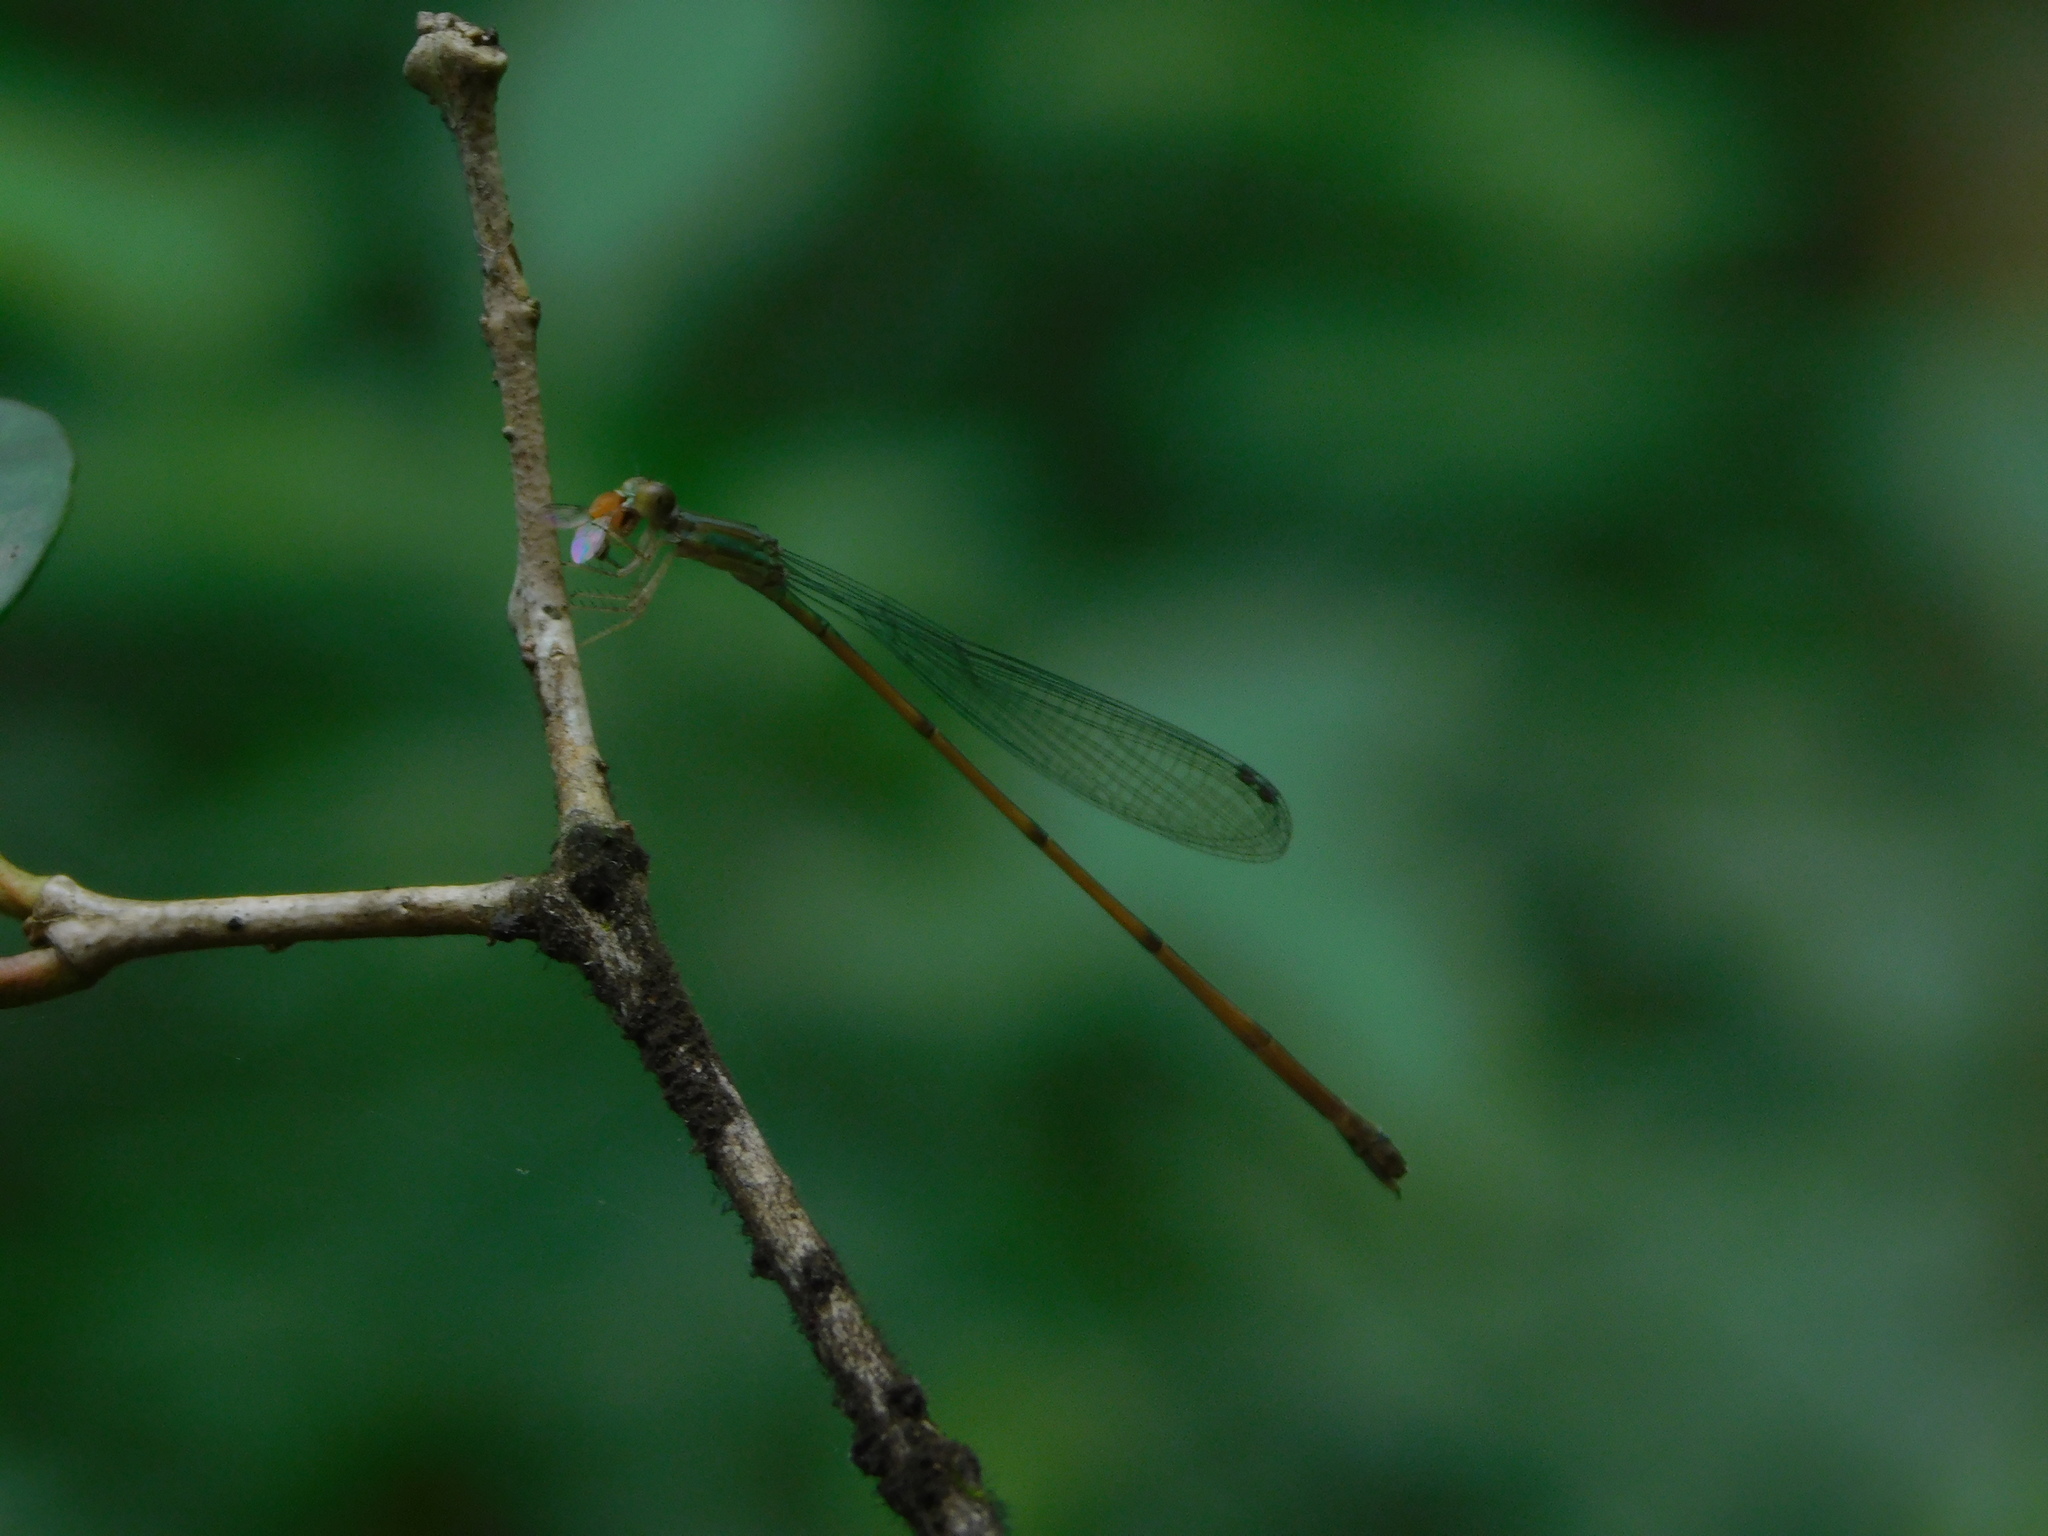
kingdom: Animalia
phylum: Arthropoda
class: Insecta
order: Odonata
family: Coenagrionidae
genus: Leptobasis
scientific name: Leptobasis lucifer
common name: Lucifer swampdamsel
